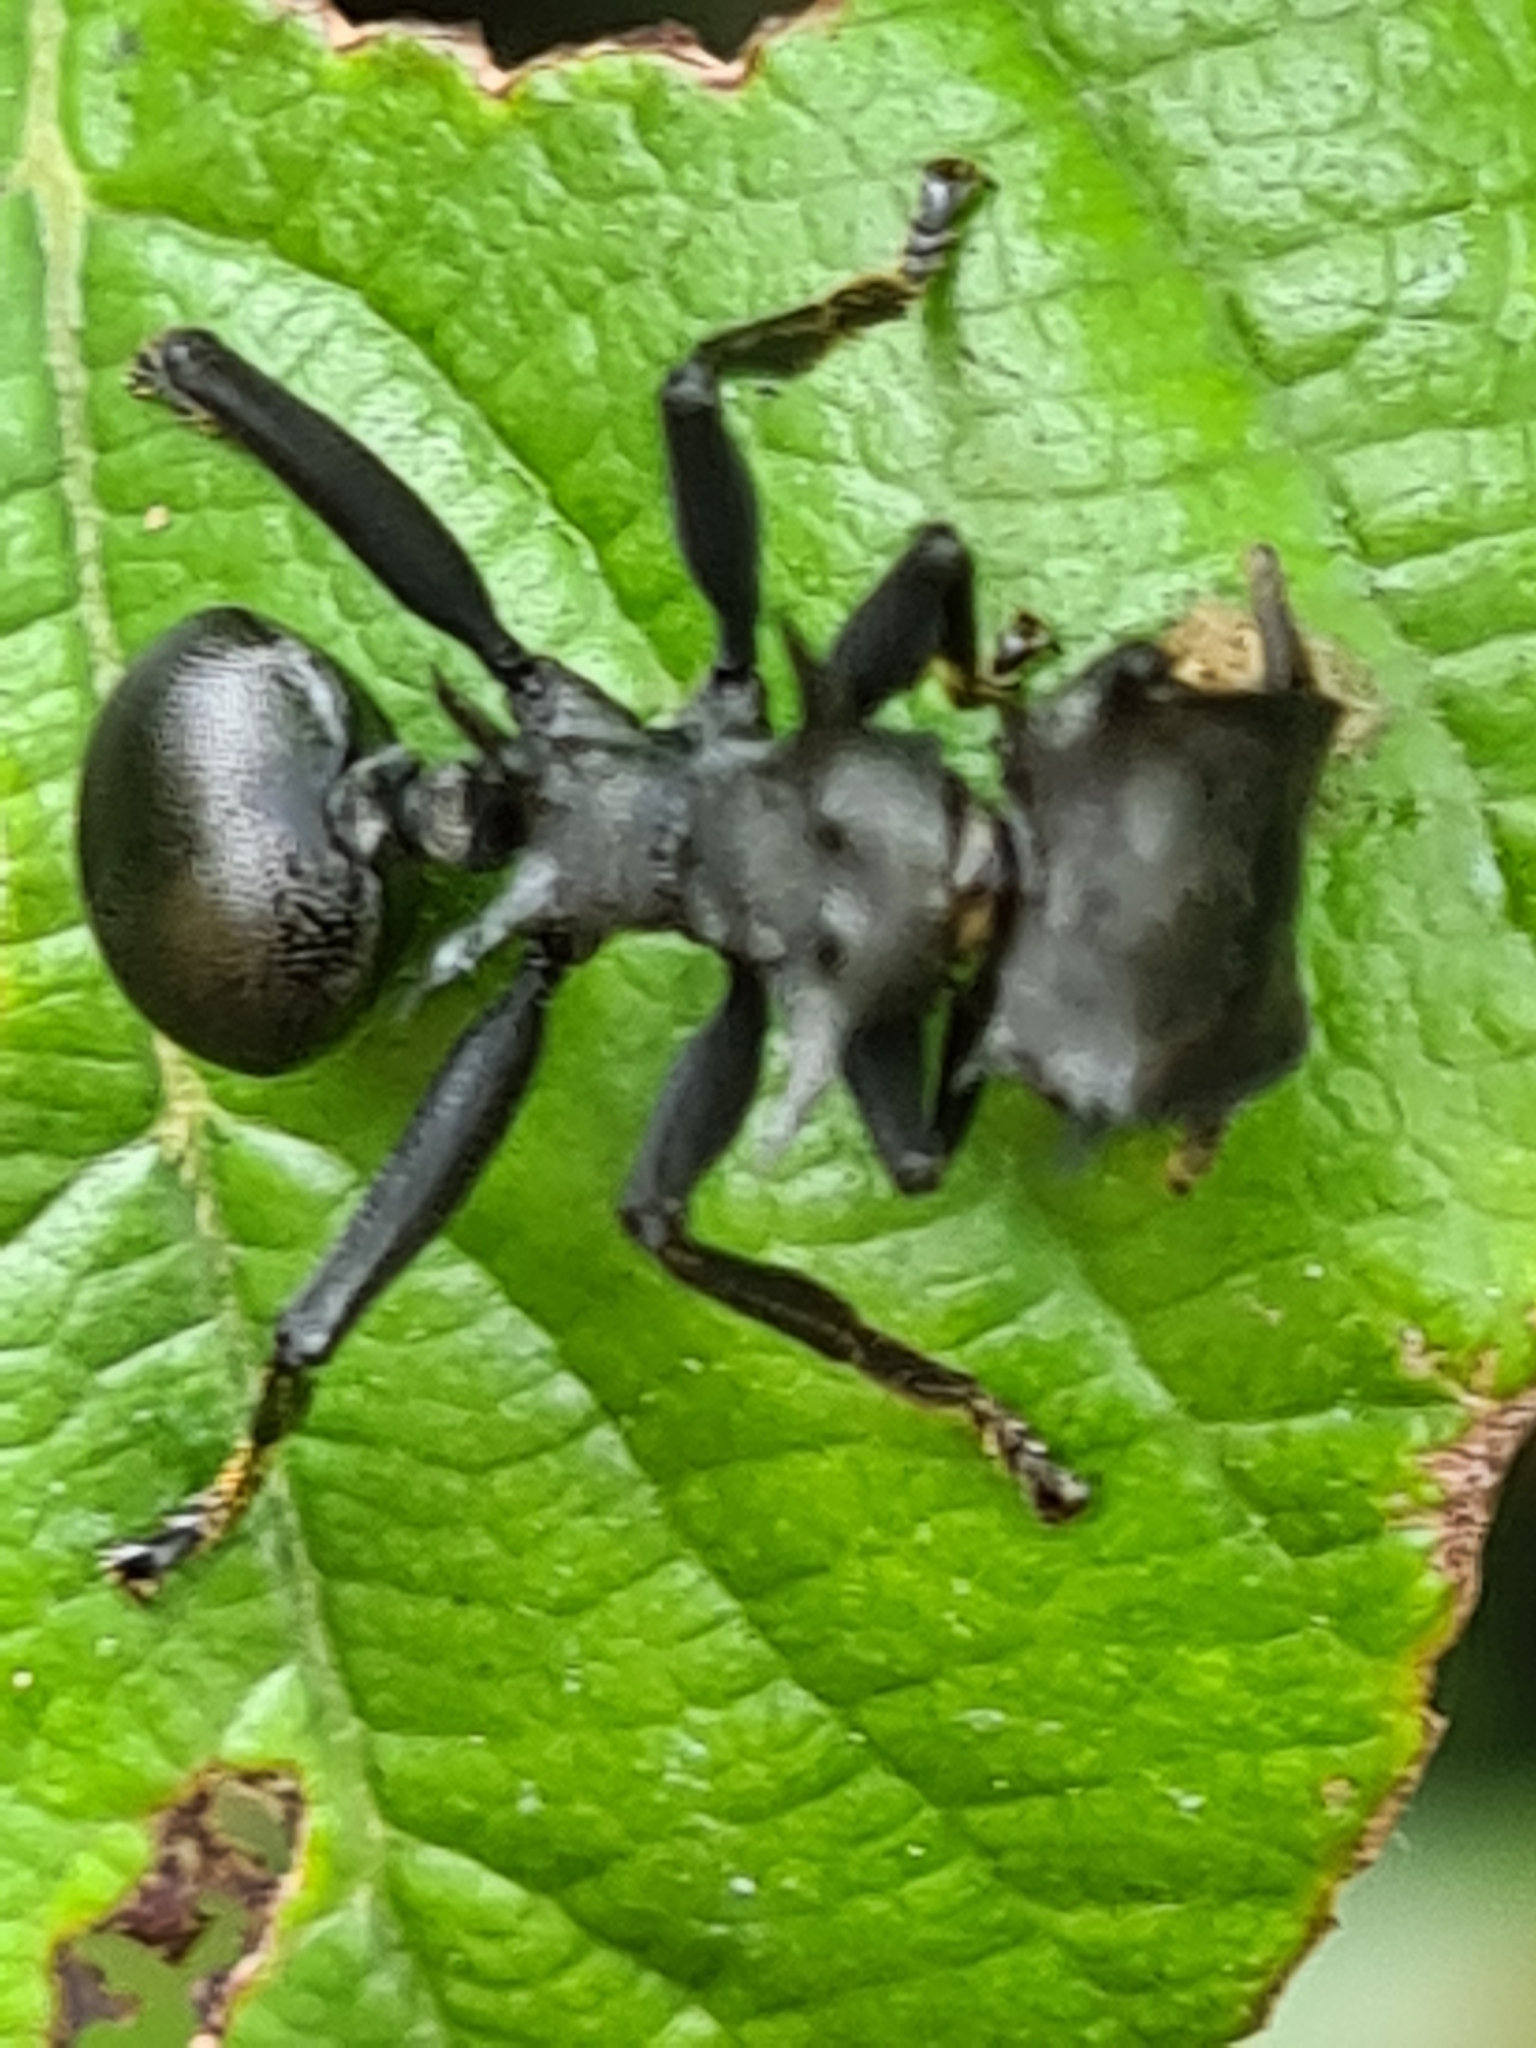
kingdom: Animalia
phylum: Arthropoda
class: Insecta
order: Hymenoptera
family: Formicidae
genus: Cephalotes
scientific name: Cephalotes
